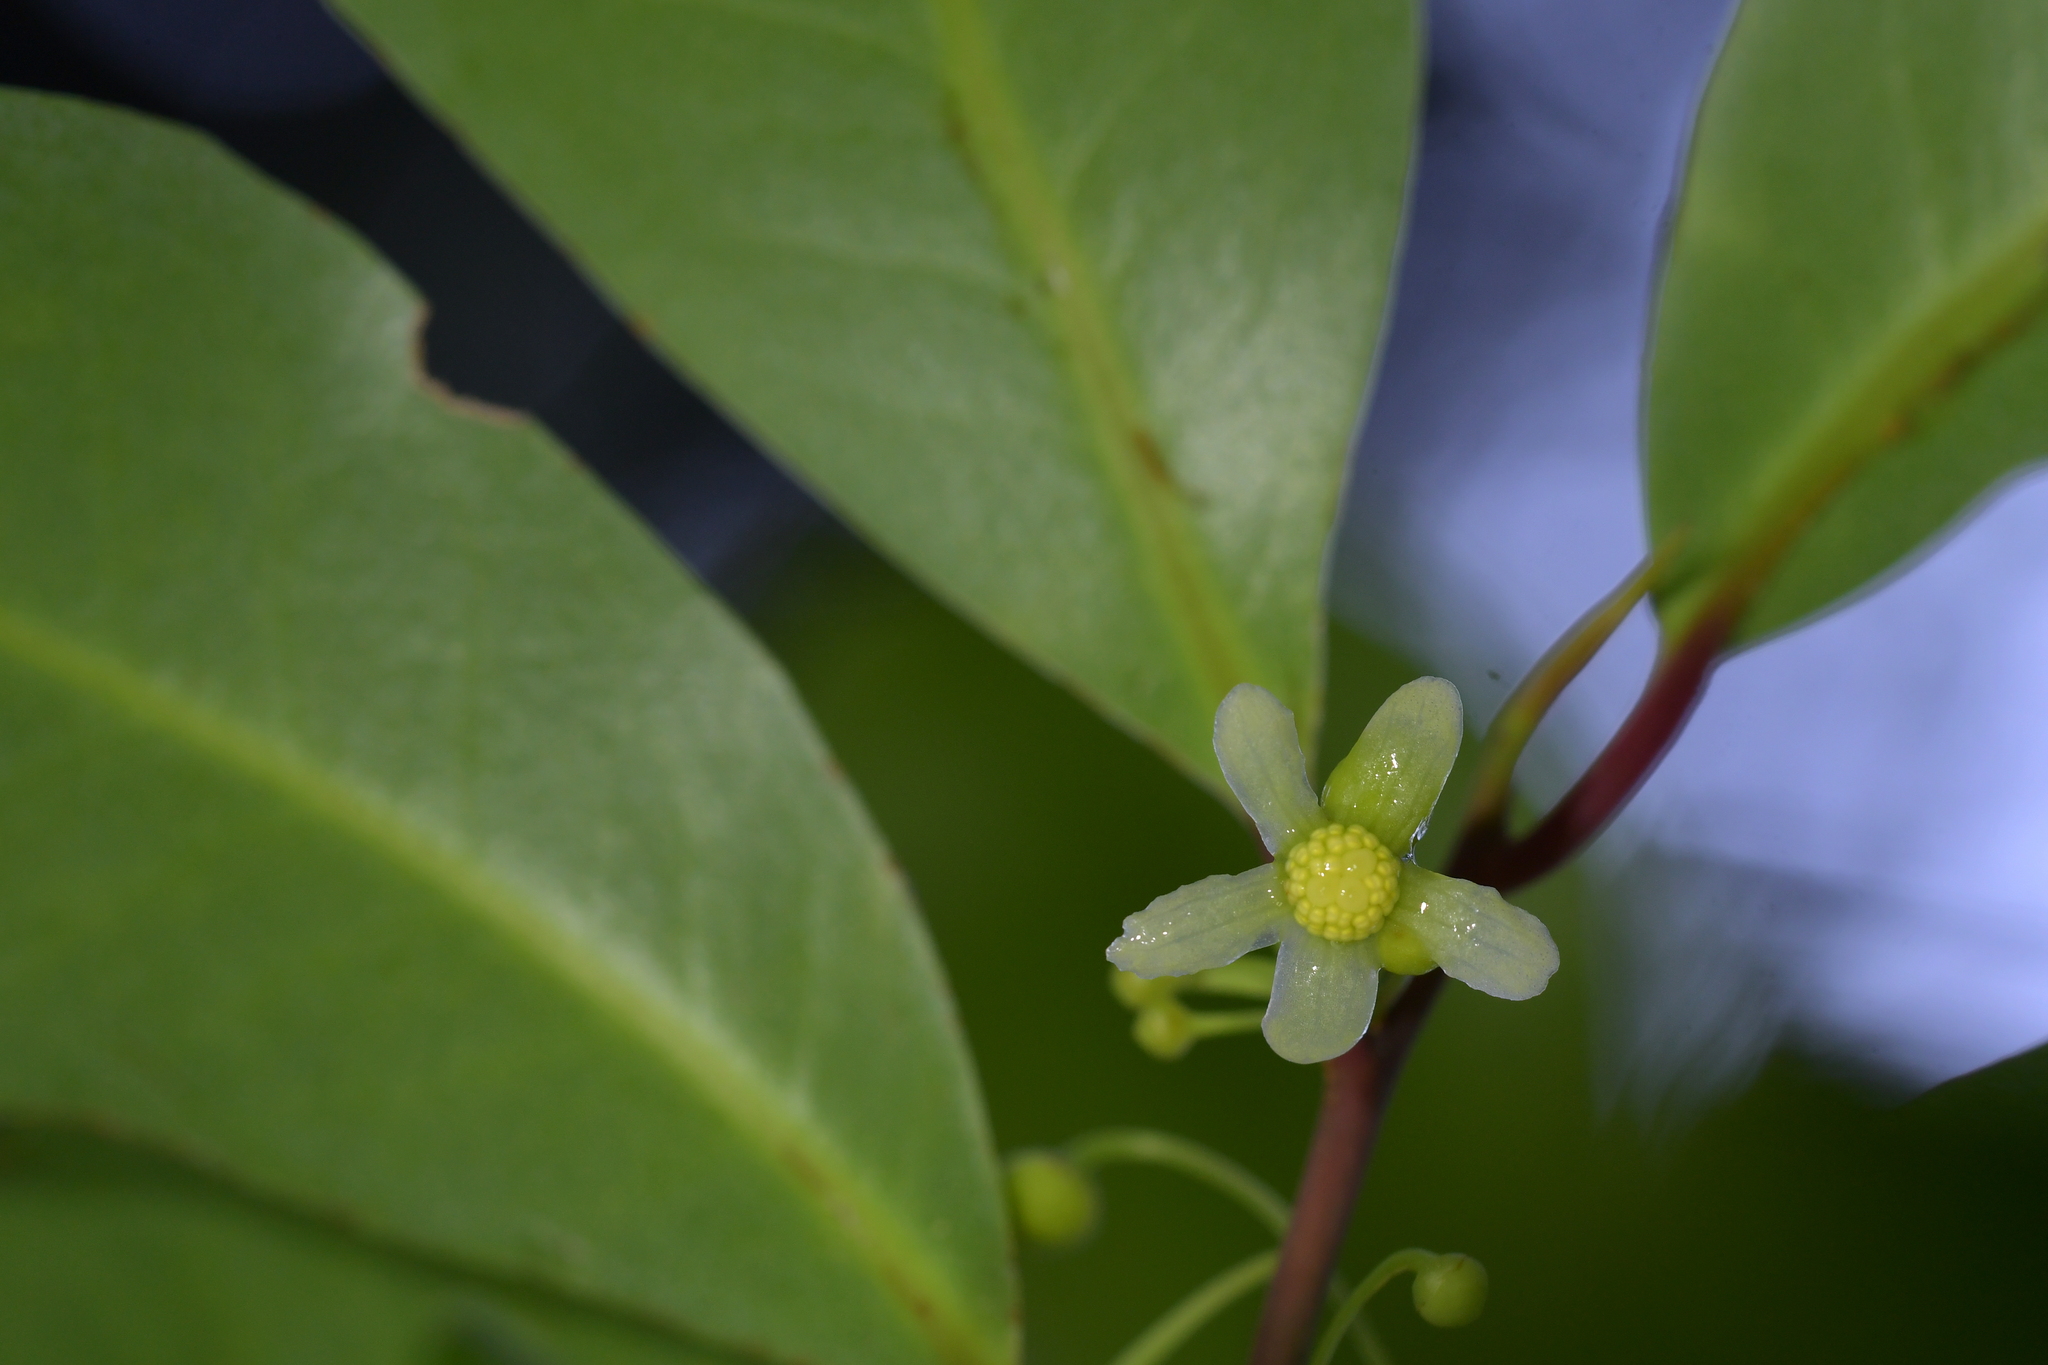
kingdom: Plantae
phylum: Tracheophyta
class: Magnoliopsida
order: Canellales
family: Winteraceae
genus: Pseudowintera
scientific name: Pseudowintera axillaris
